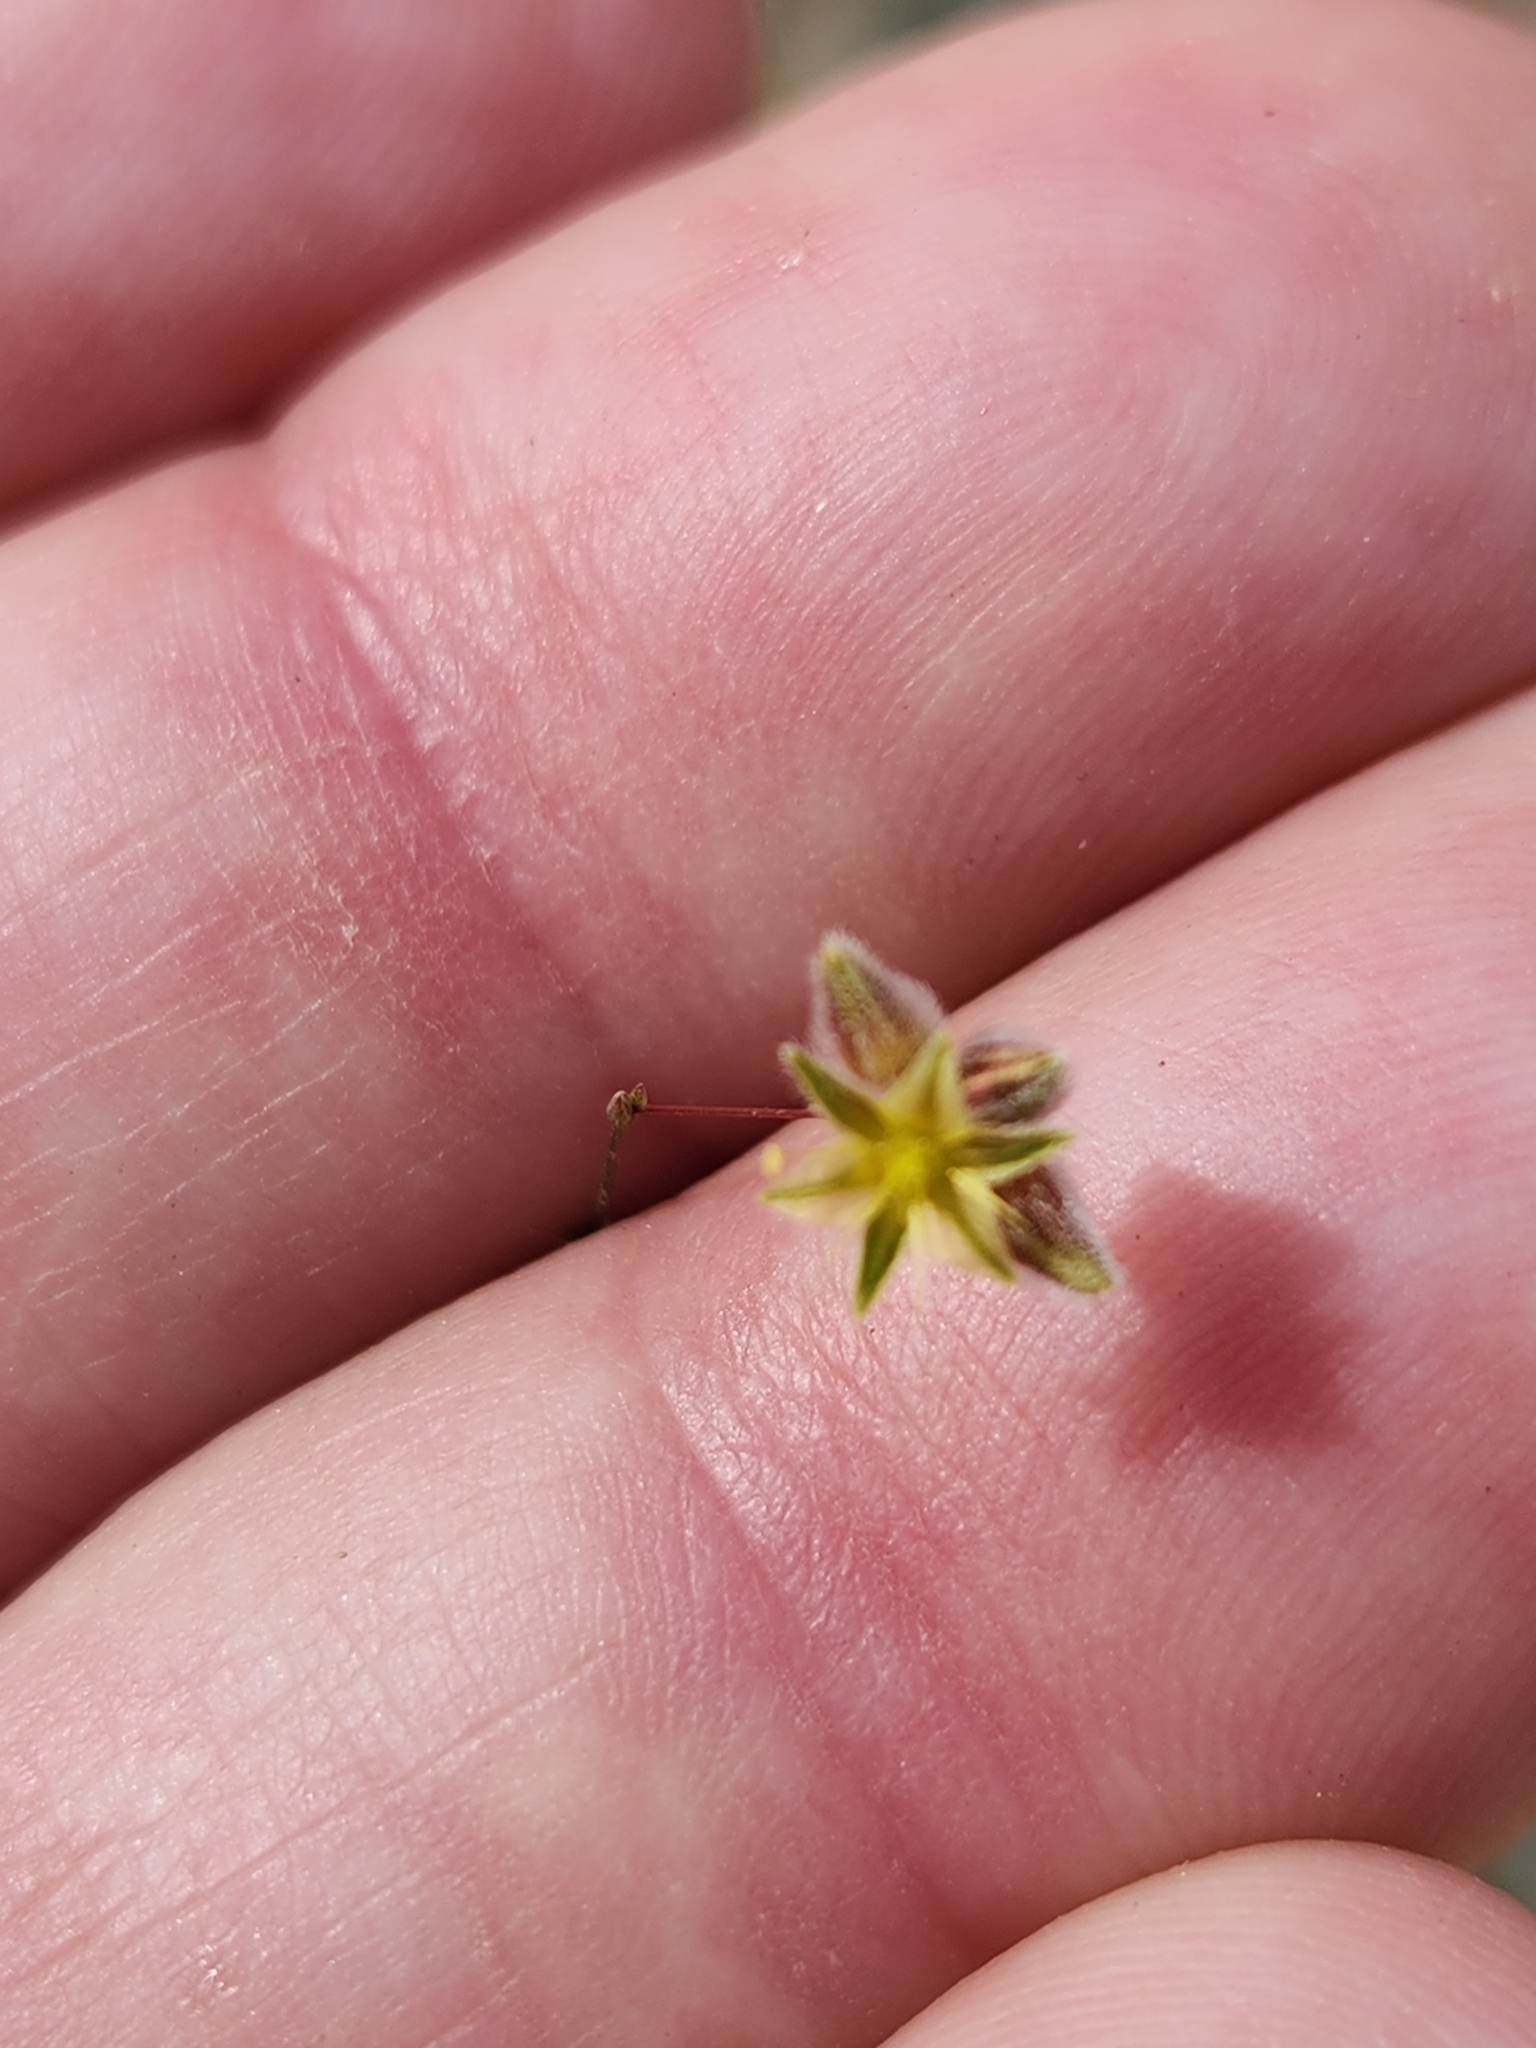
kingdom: Plantae
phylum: Tracheophyta
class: Magnoliopsida
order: Caryophyllales
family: Polygonaceae
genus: Eriogonum
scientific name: Eriogonum inflatum
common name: Desert trumpet
